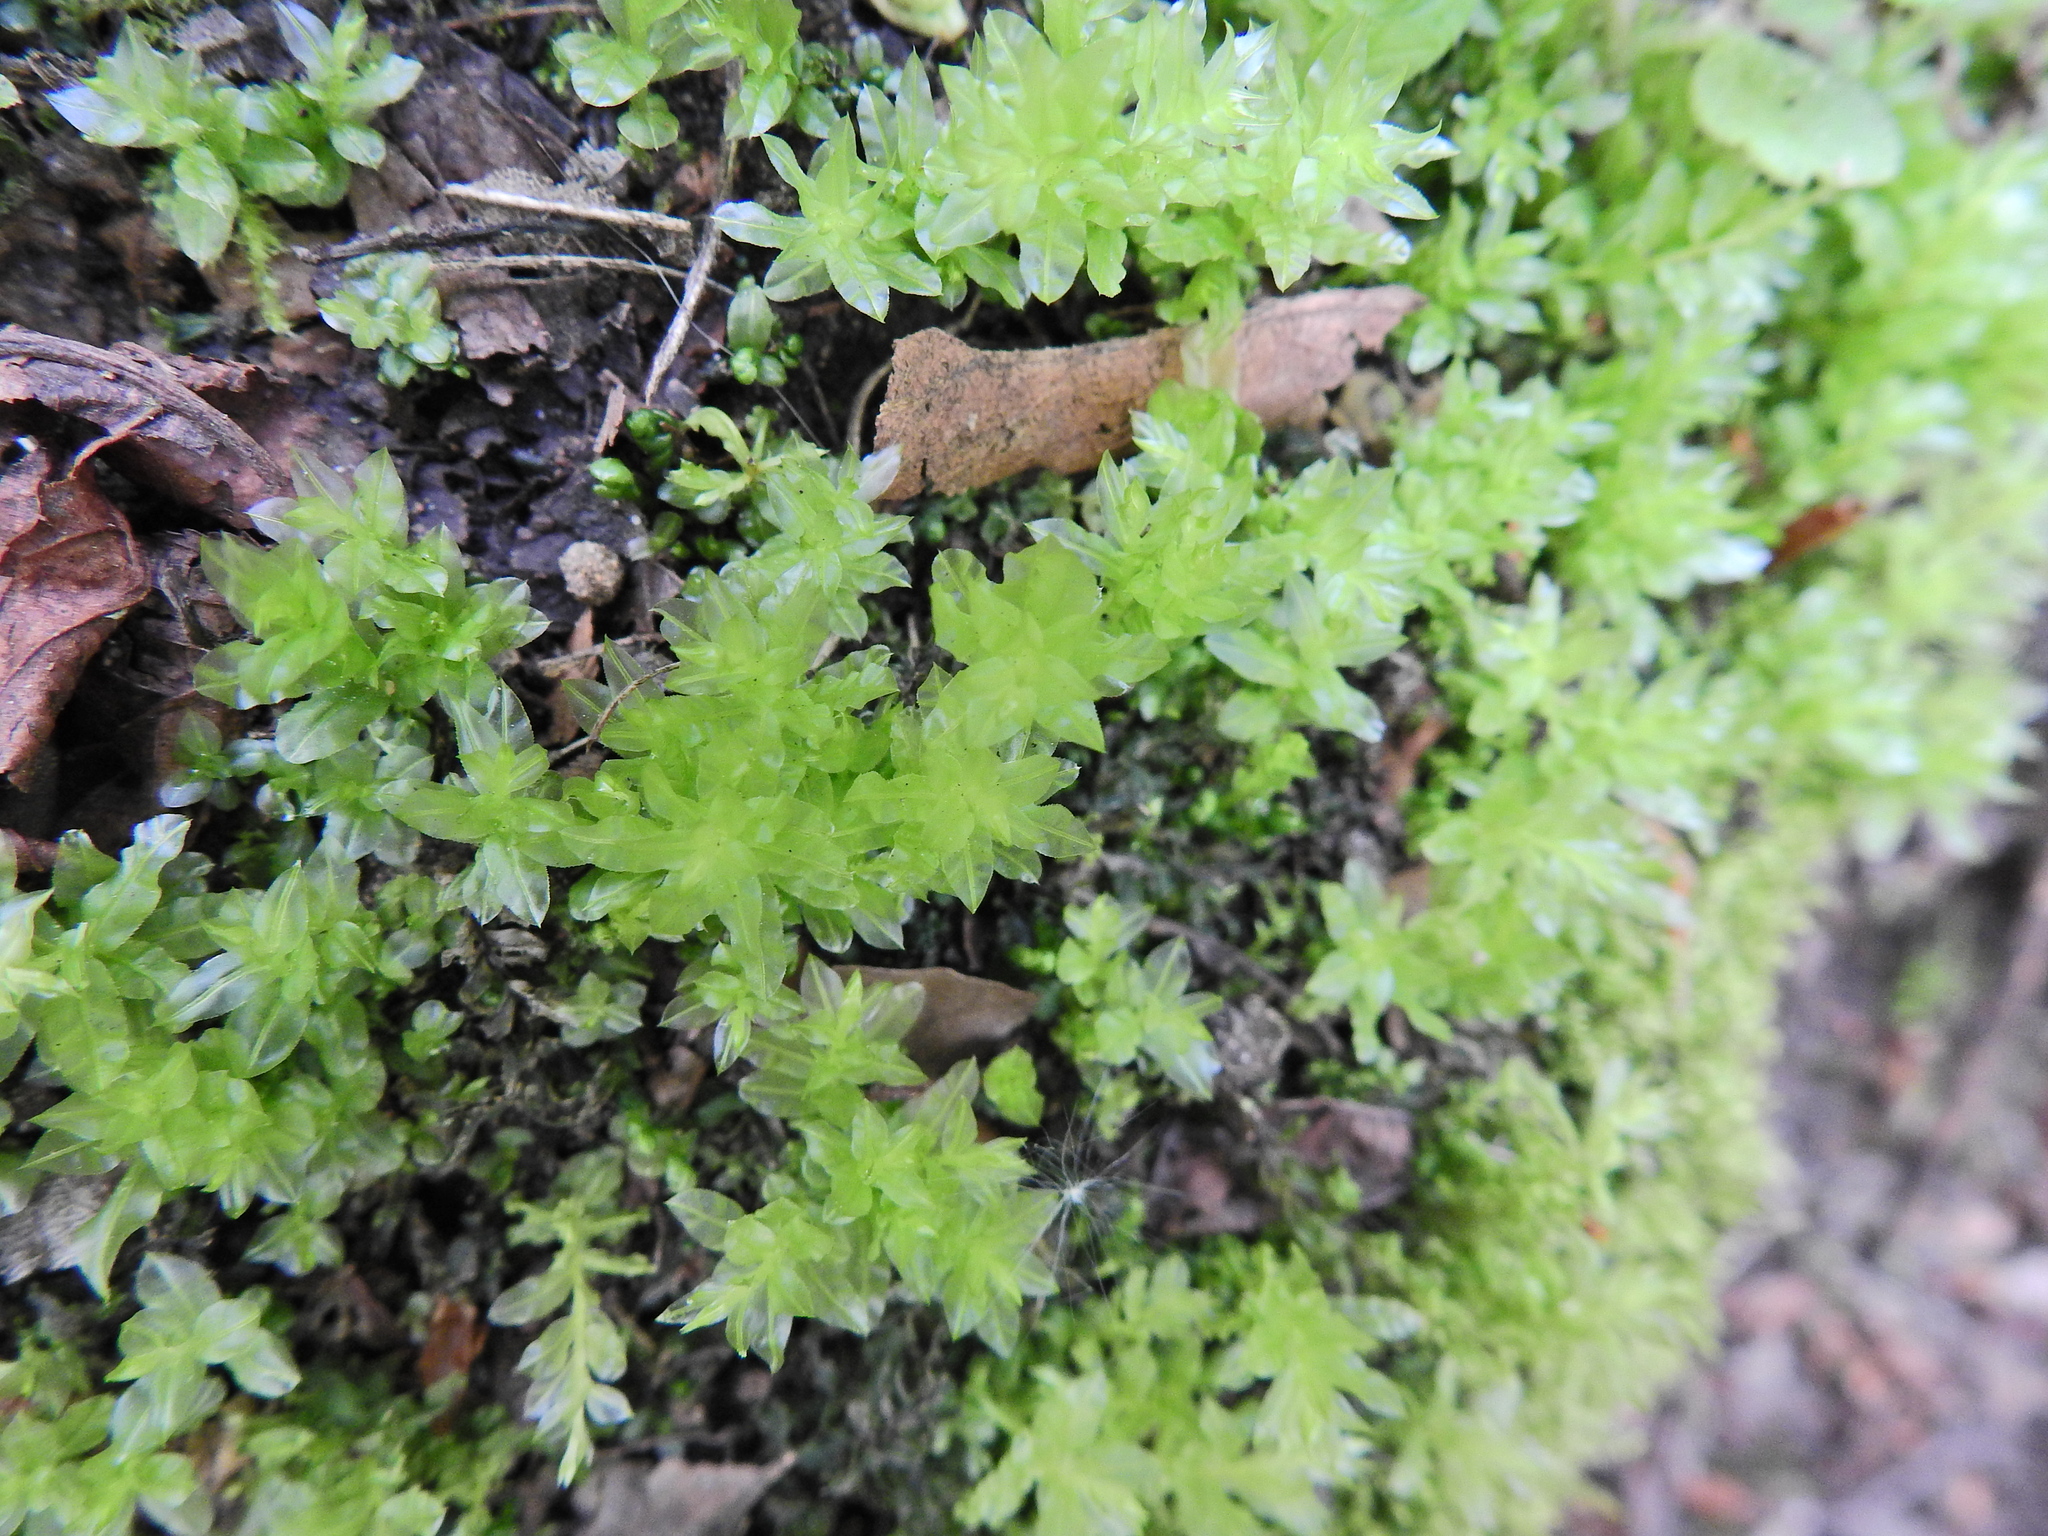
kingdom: Plantae
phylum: Bryophyta
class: Bryopsida
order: Bryales
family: Mniaceae
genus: Plagiomnium
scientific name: Plagiomnium undulatum
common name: Hart's-tongue thyme-moss
